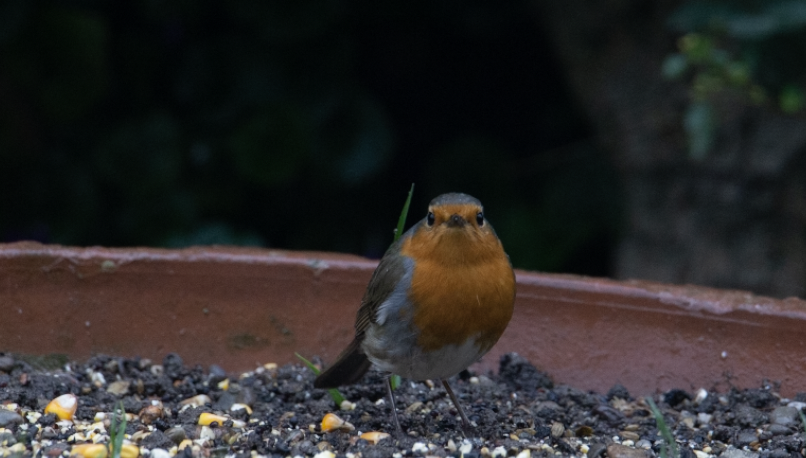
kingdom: Animalia
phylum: Chordata
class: Aves
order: Passeriformes
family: Muscicapidae
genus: Erithacus
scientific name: Erithacus rubecula
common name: European robin
